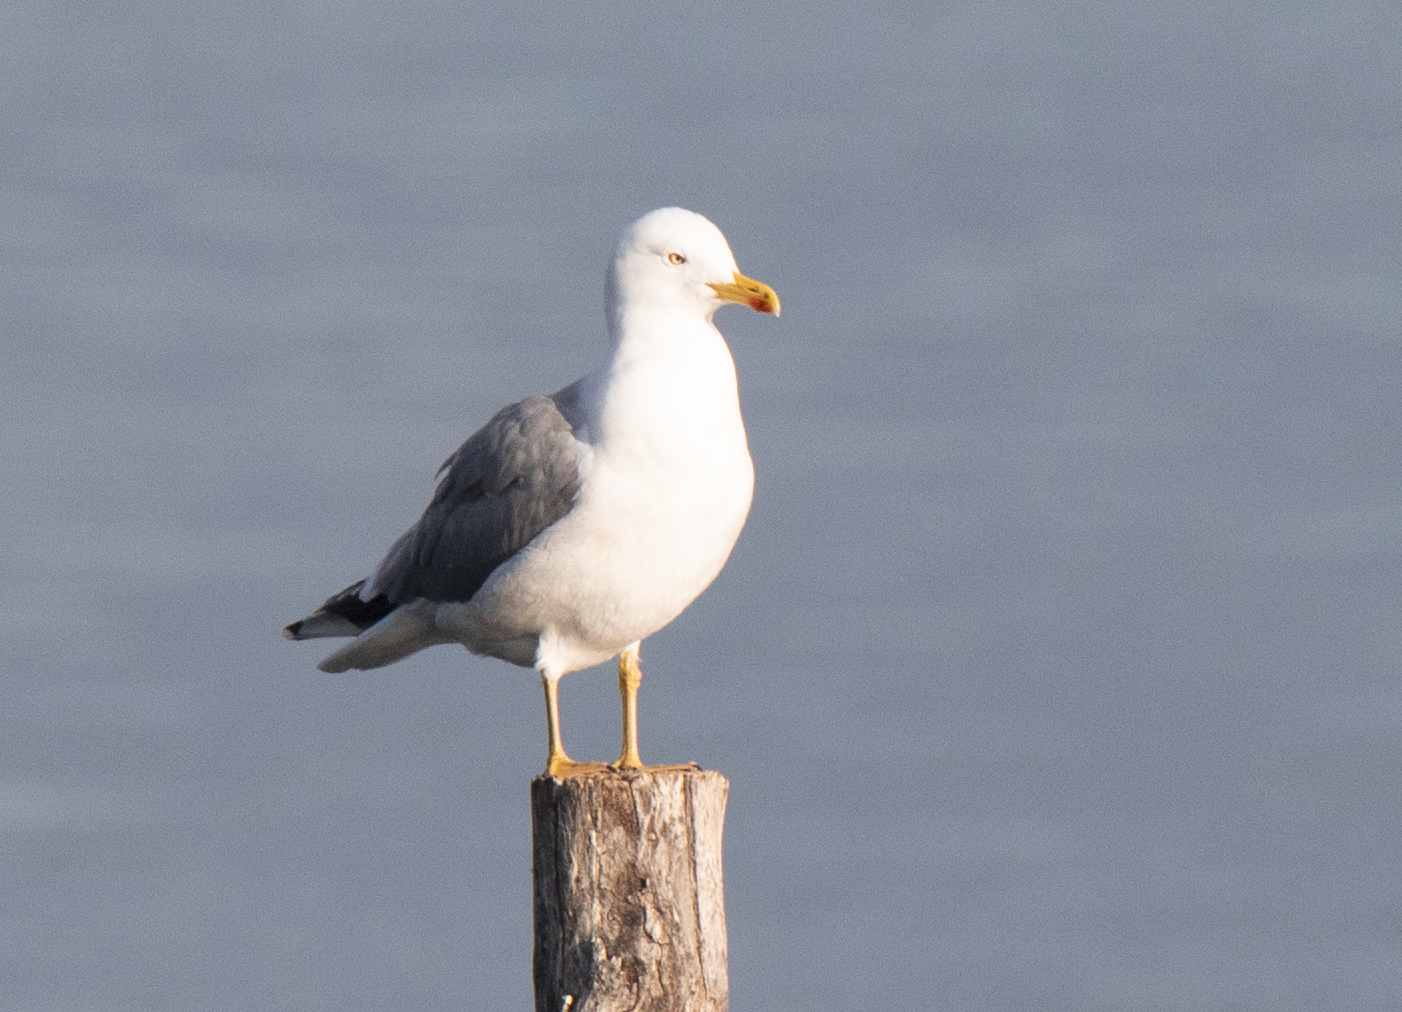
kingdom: Animalia
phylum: Chordata
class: Aves
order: Charadriiformes
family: Laridae
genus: Larus
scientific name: Larus michahellis
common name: Yellow-legged gull
